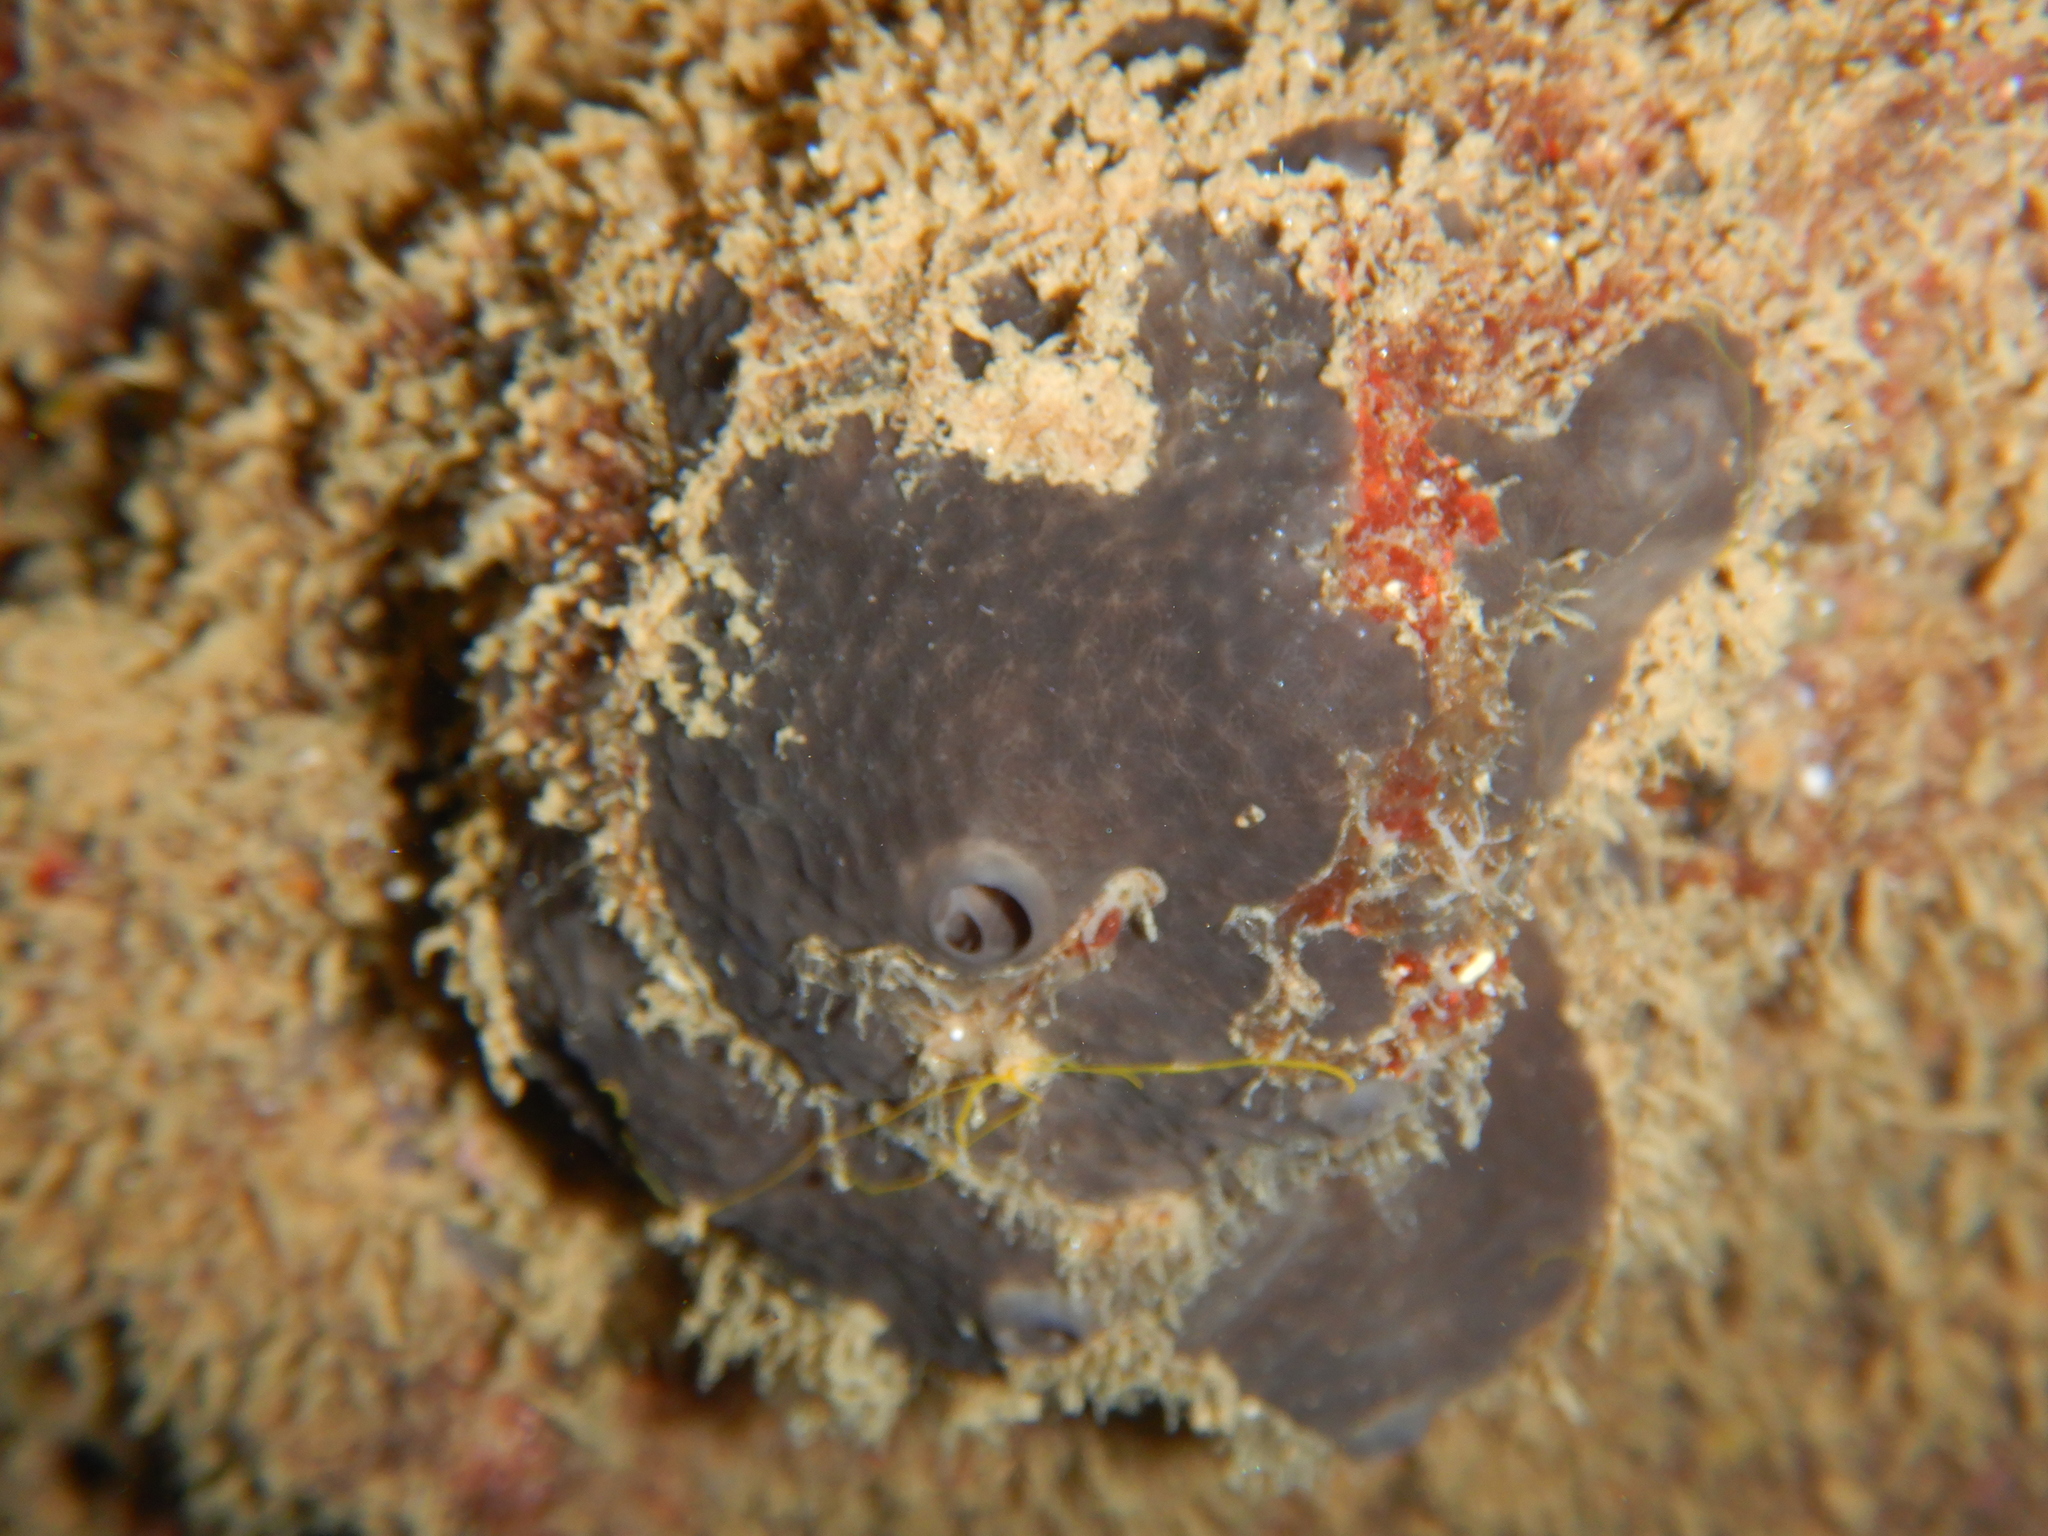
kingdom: Animalia
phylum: Porifera
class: Demospongiae
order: Dictyoceratida
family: Irciniidae
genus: Ircinia
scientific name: Ircinia oros
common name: Grey leather sponge
